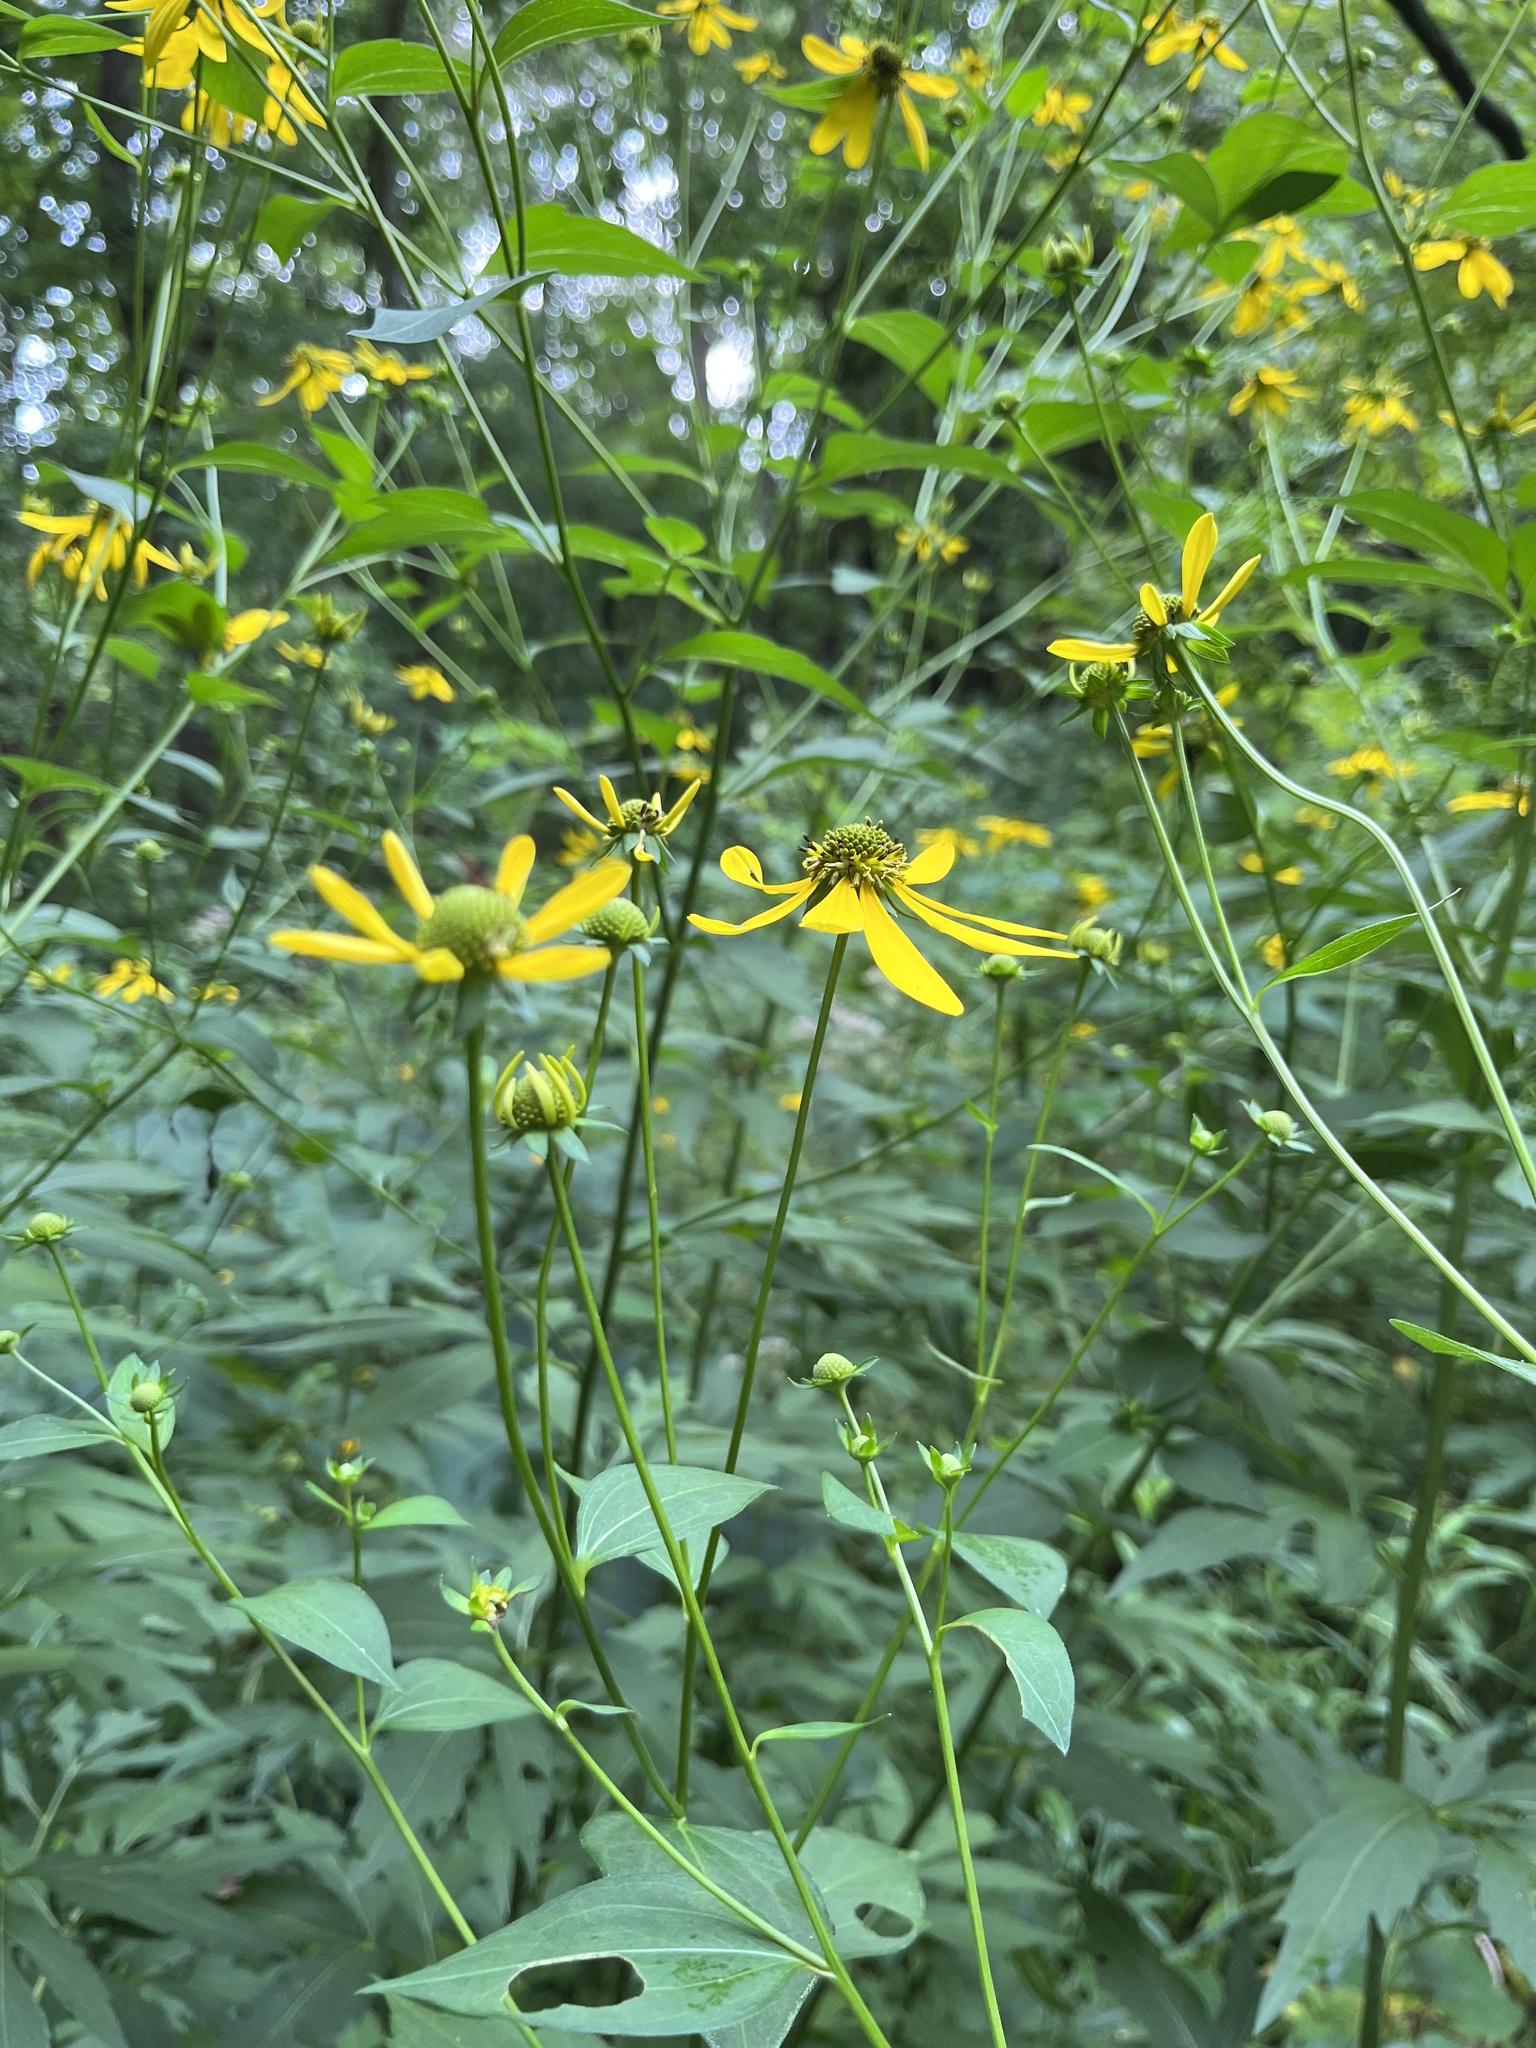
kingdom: Plantae
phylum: Tracheophyta
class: Magnoliopsida
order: Asterales
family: Asteraceae
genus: Rudbeckia
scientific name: Rudbeckia laciniata
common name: Coneflower
